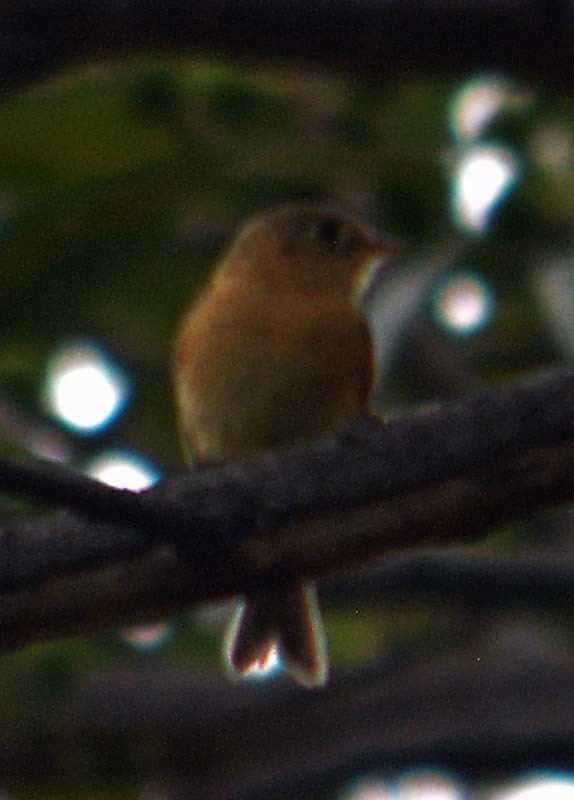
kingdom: Animalia
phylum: Chordata
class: Aves
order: Passeriformes
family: Tyrannidae
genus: Empidonax
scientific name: Empidonax fulvifrons
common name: Buff-breasted flycatcher
